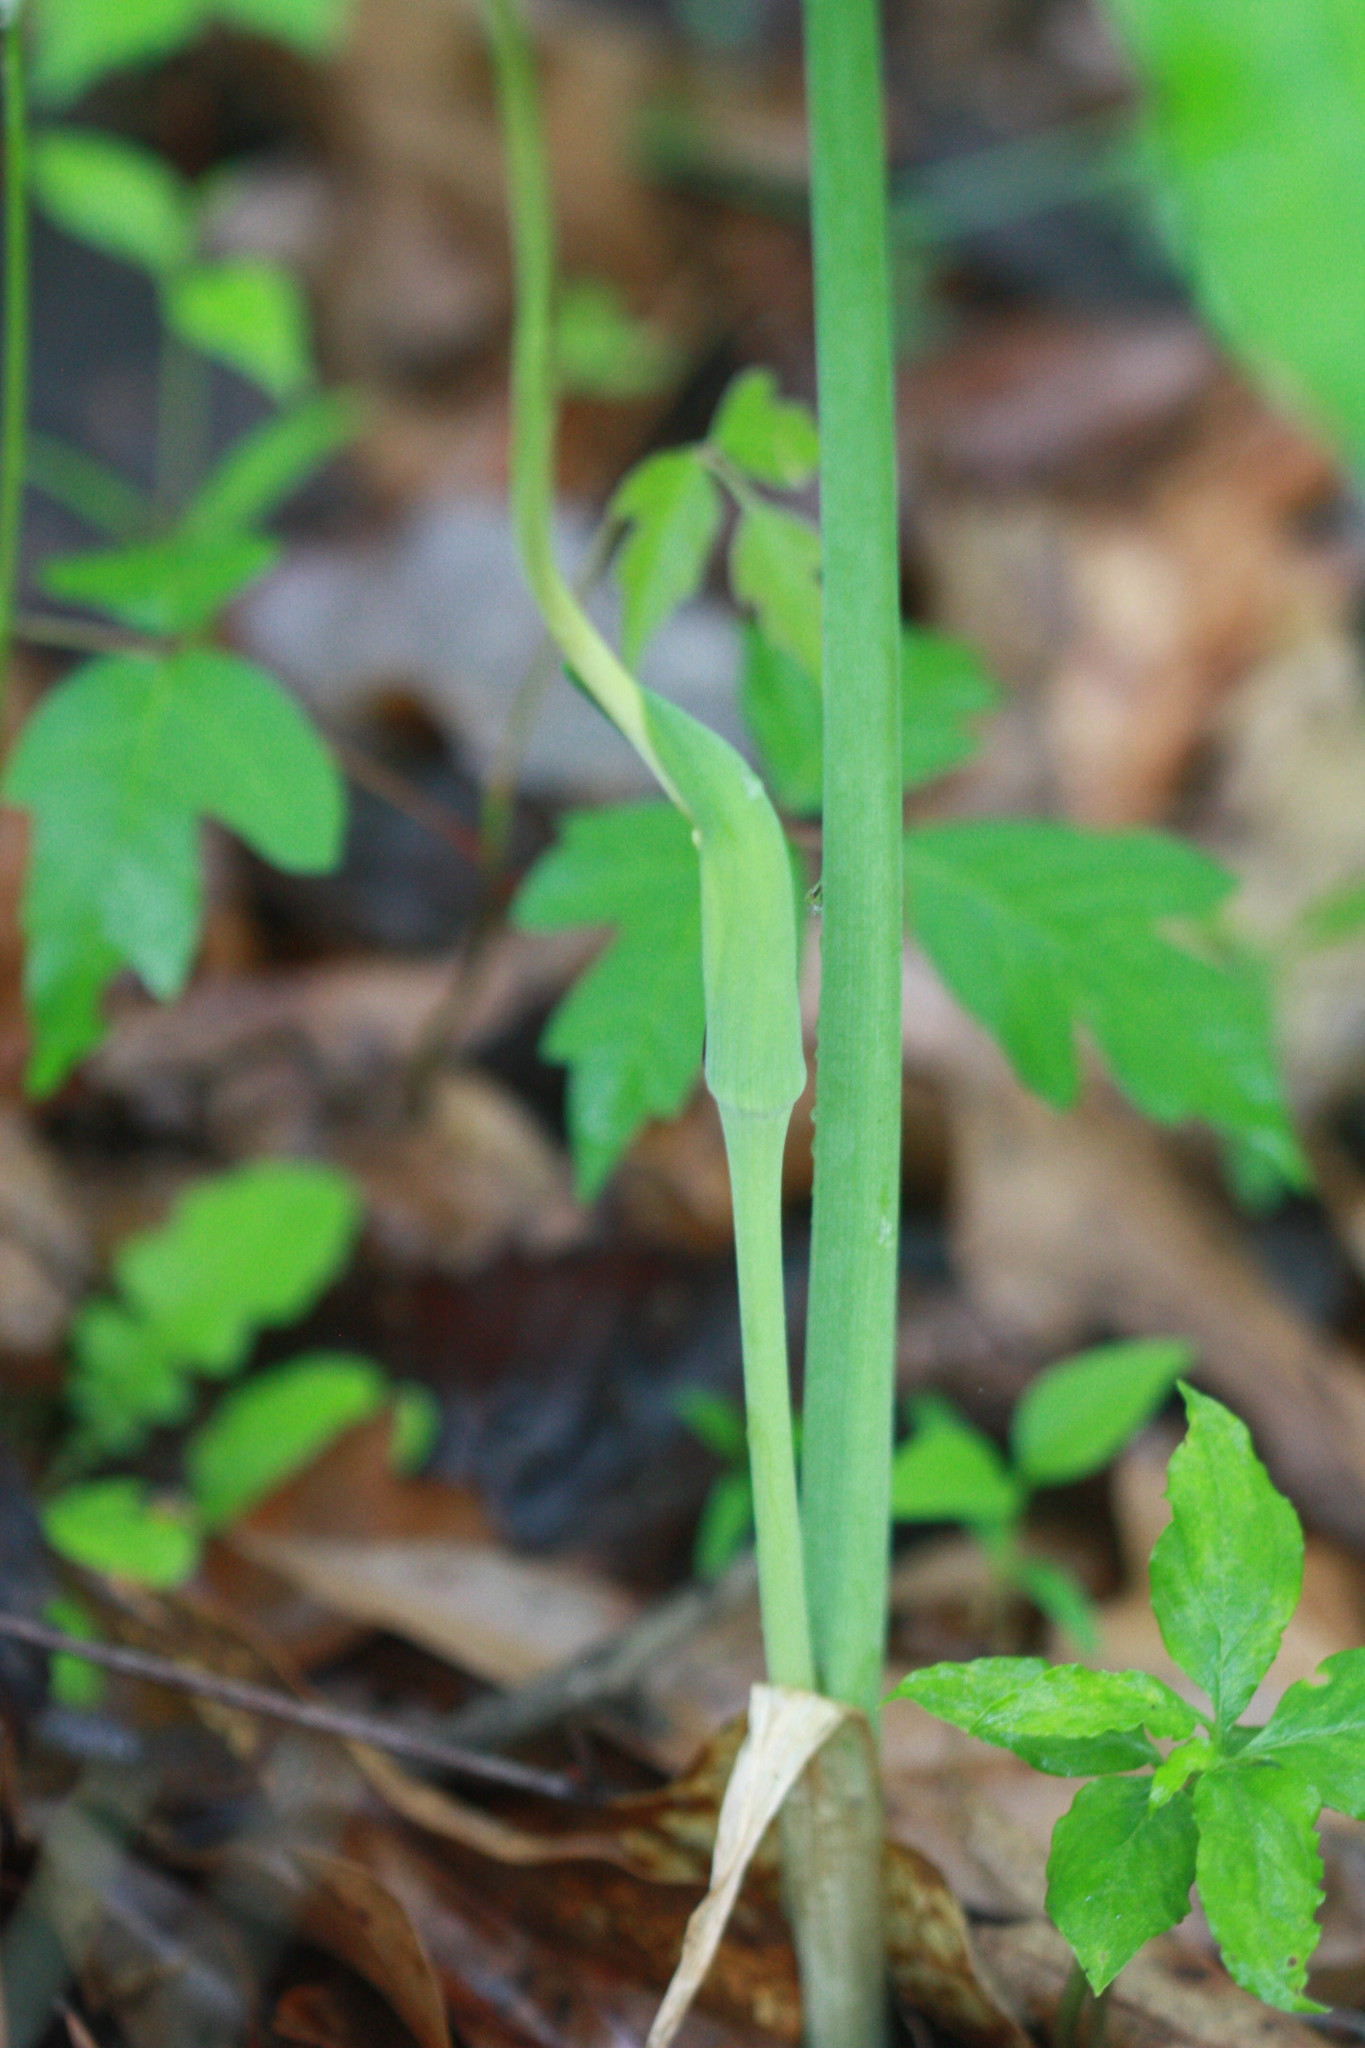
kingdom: Plantae
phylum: Tracheophyta
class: Liliopsida
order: Alismatales
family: Araceae
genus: Arisaema
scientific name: Arisaema dracontium
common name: Dragon-arum
